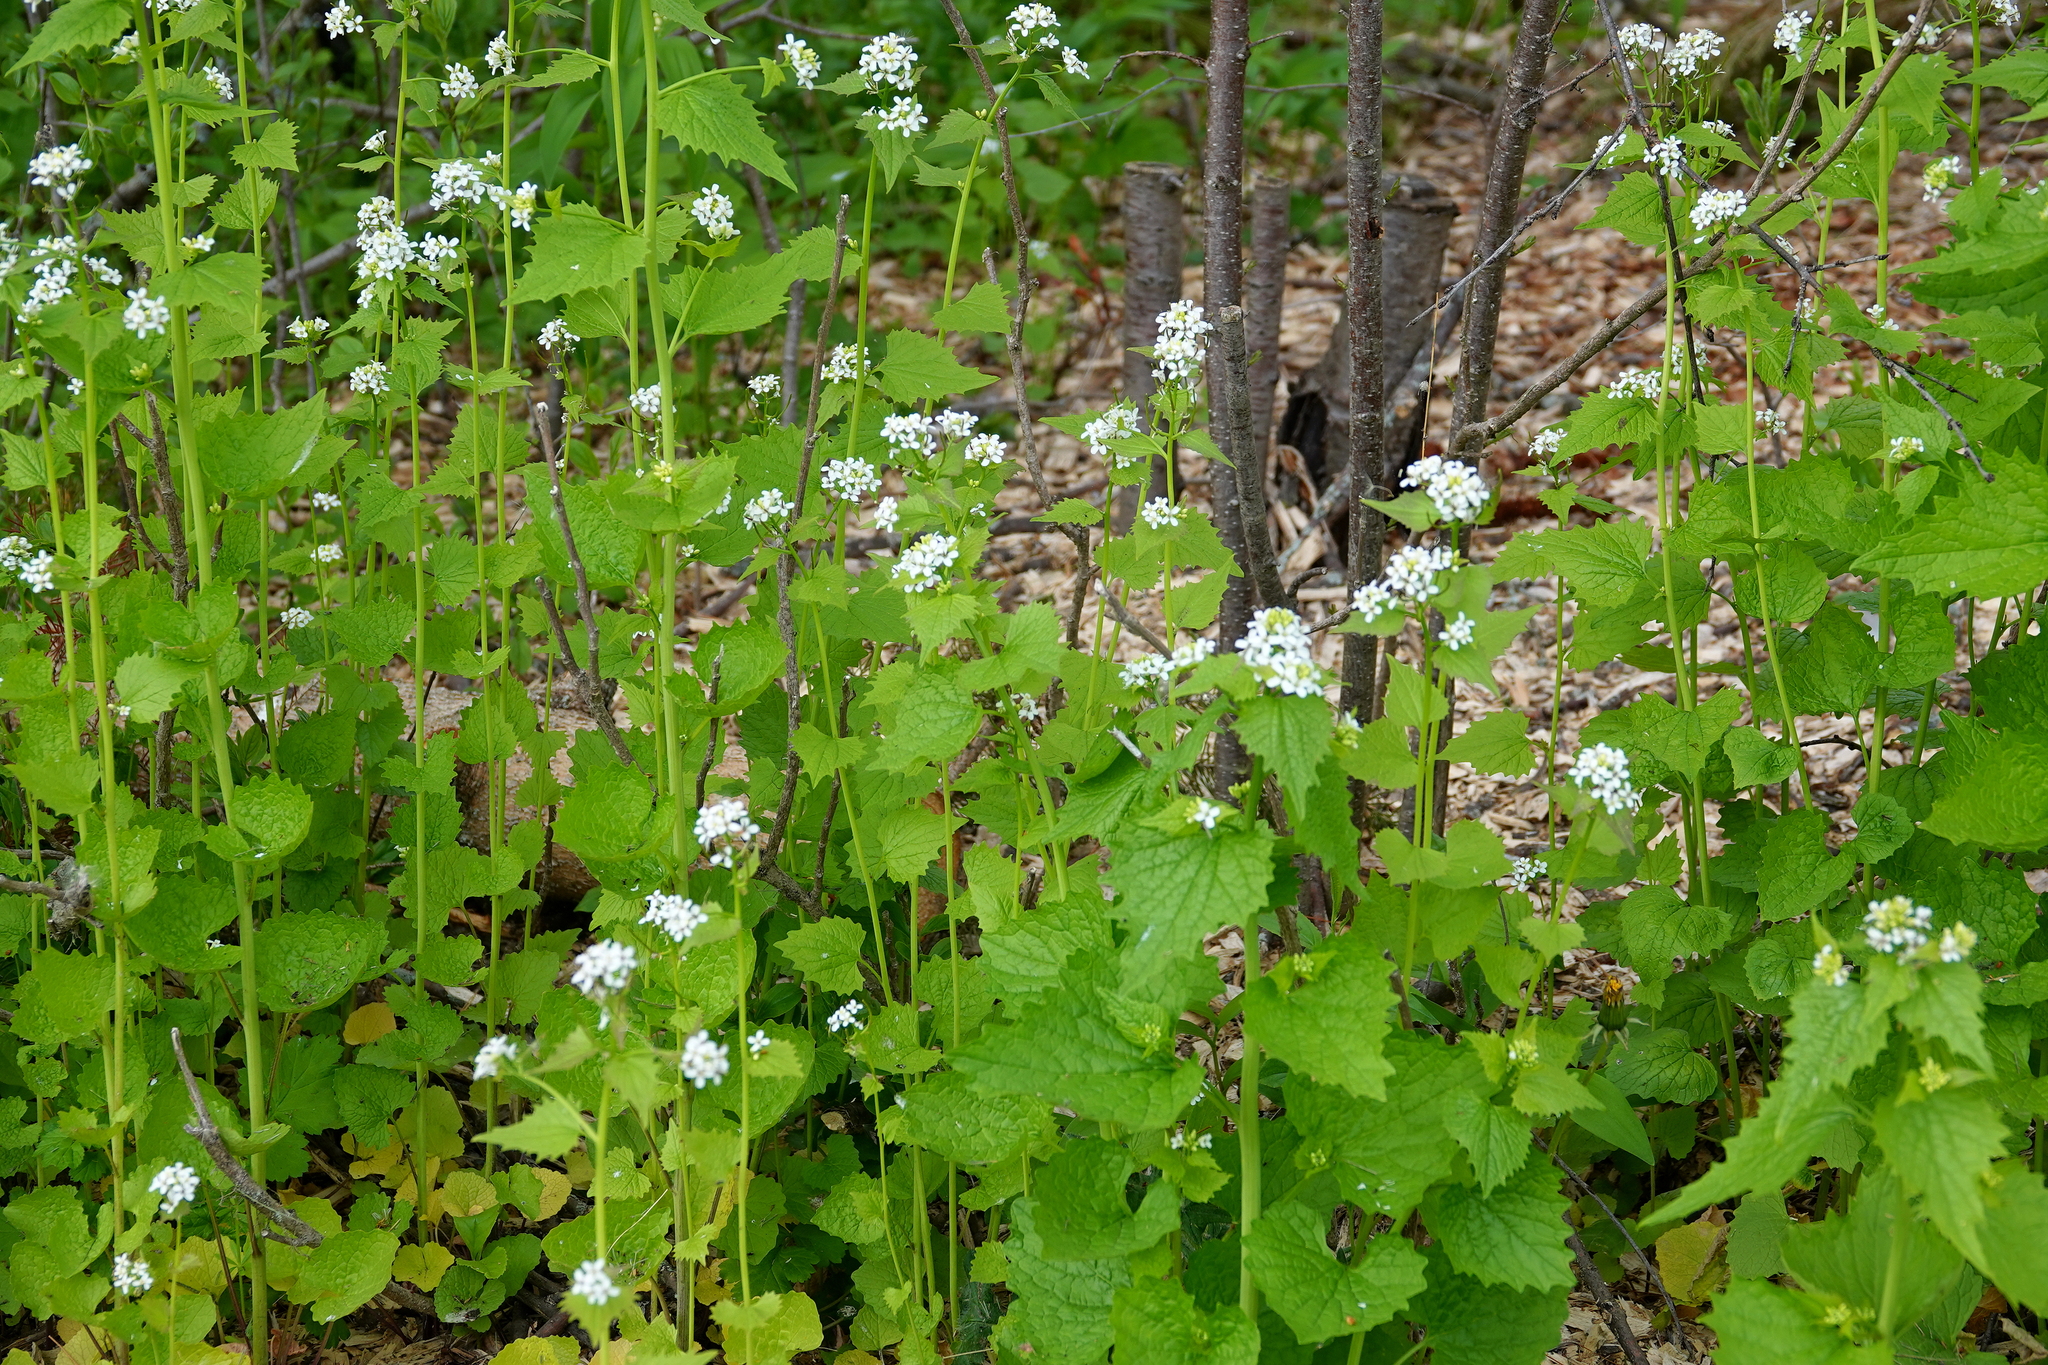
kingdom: Plantae
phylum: Tracheophyta
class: Magnoliopsida
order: Brassicales
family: Brassicaceae
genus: Alliaria
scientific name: Alliaria petiolata
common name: Garlic mustard
